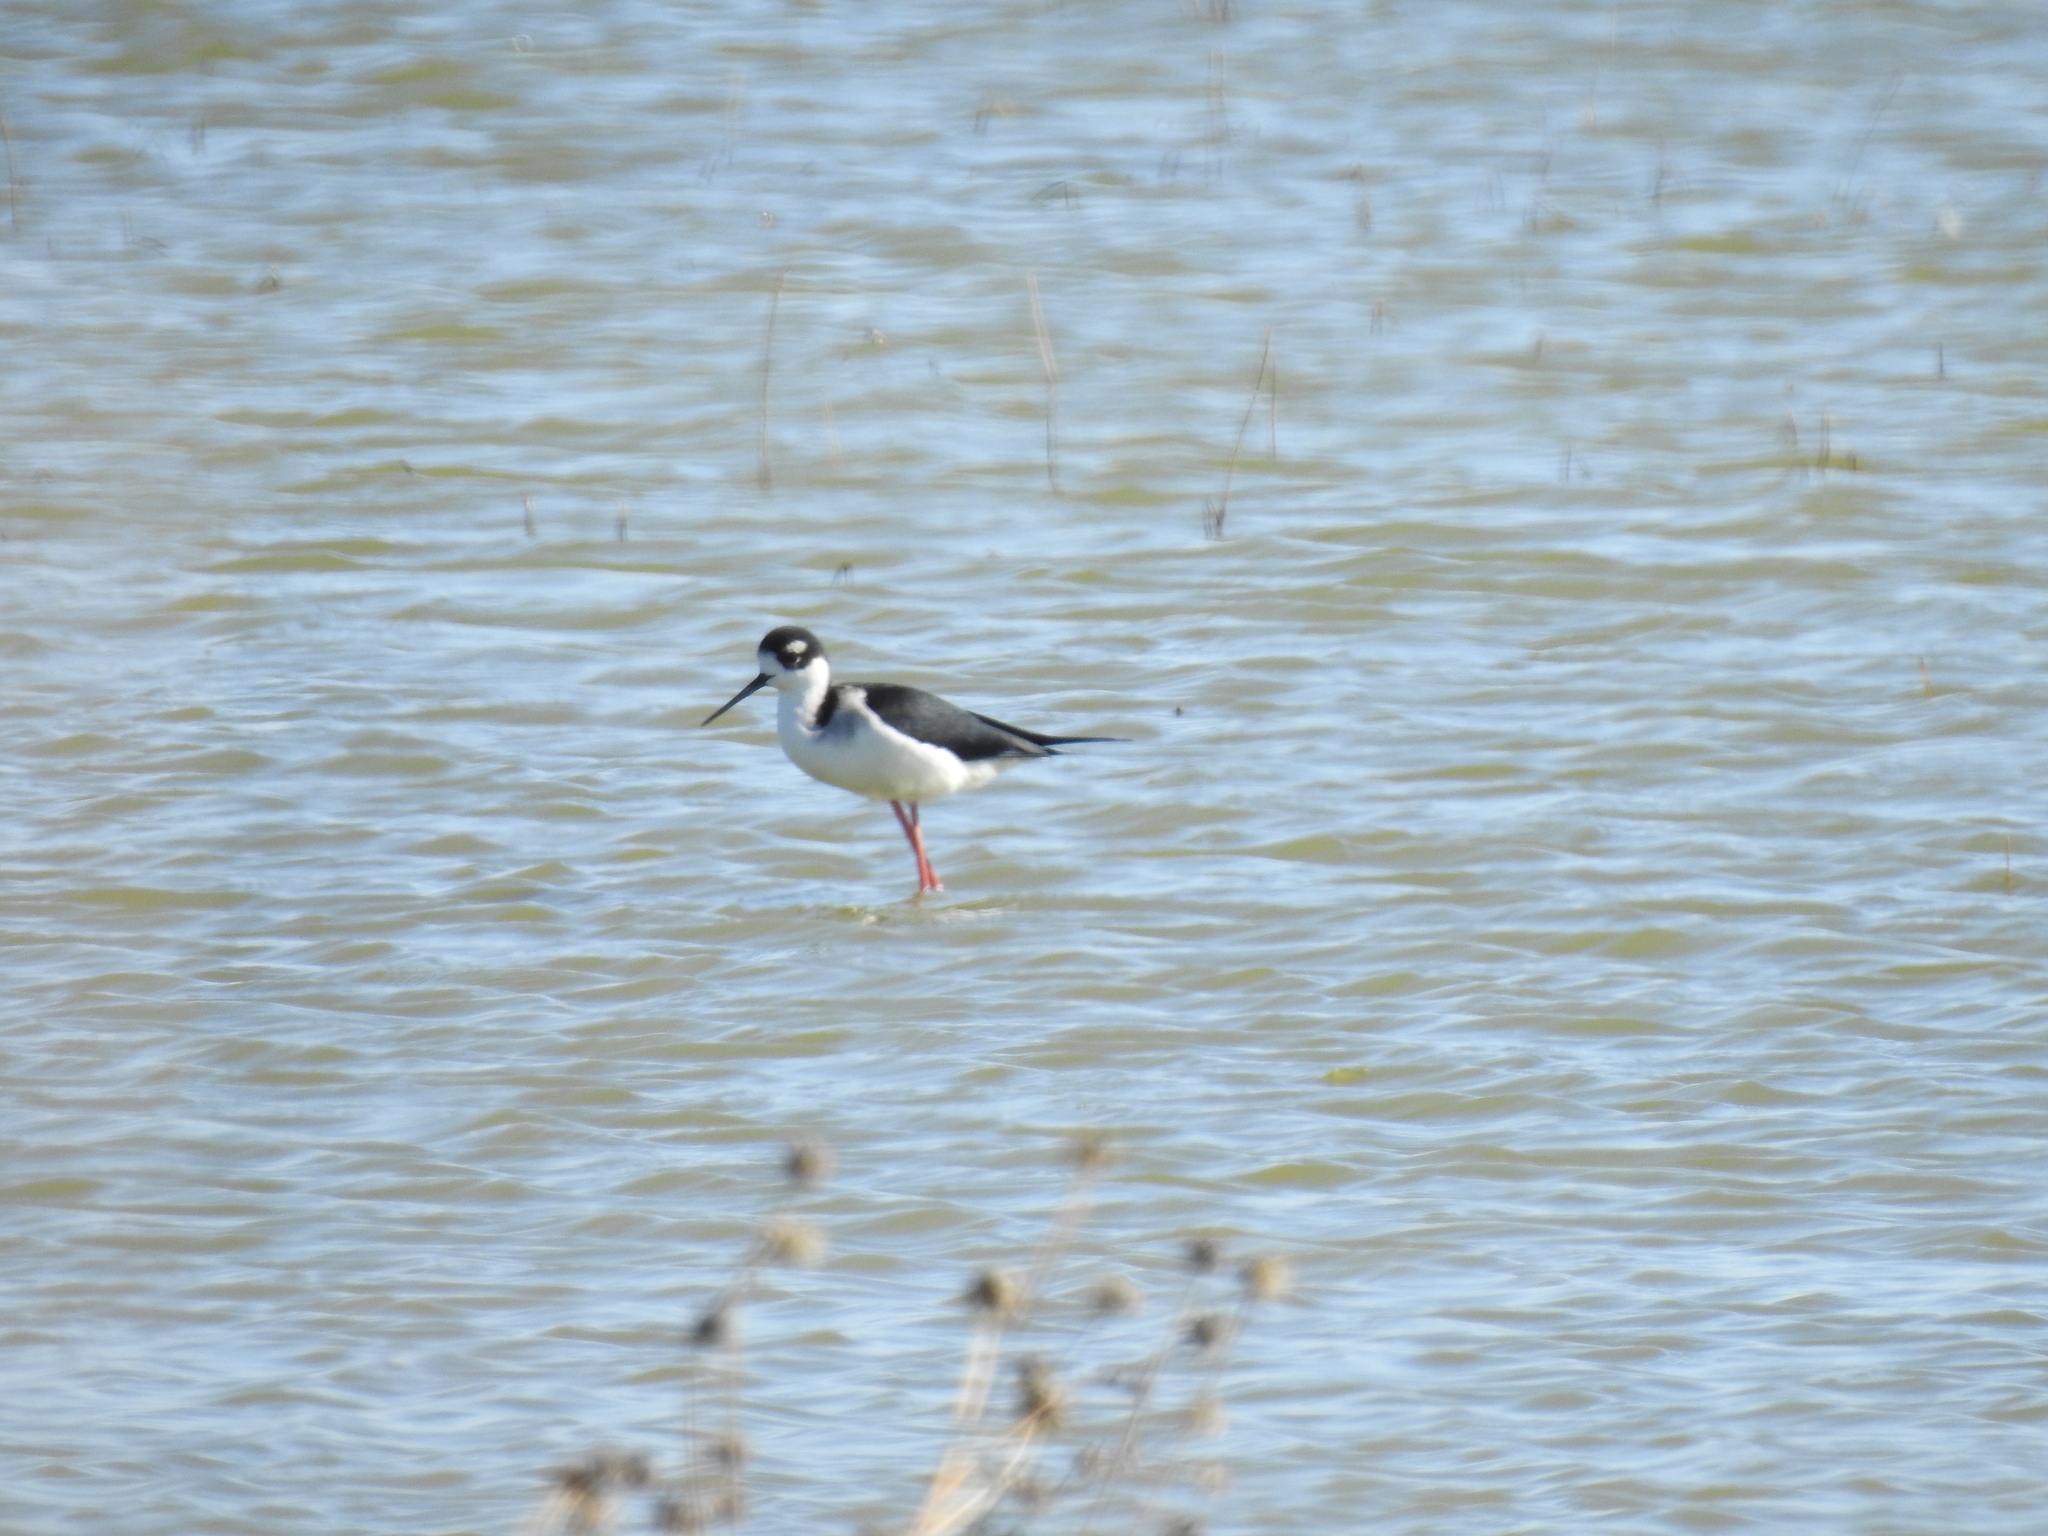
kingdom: Animalia
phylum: Chordata
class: Aves
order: Charadriiformes
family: Recurvirostridae
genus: Himantopus
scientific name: Himantopus mexicanus
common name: Black-necked stilt
